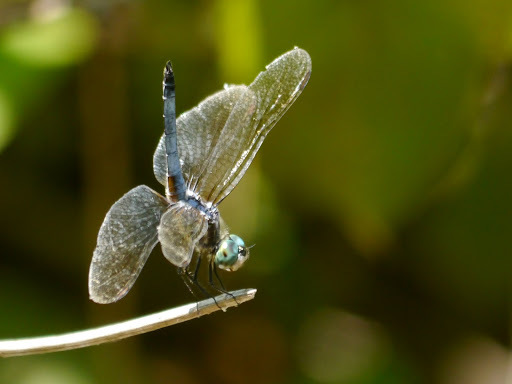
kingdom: Animalia
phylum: Arthropoda
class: Insecta
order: Odonata
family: Libellulidae
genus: Pachydiplax
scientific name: Pachydiplax longipennis
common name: Blue dasher
